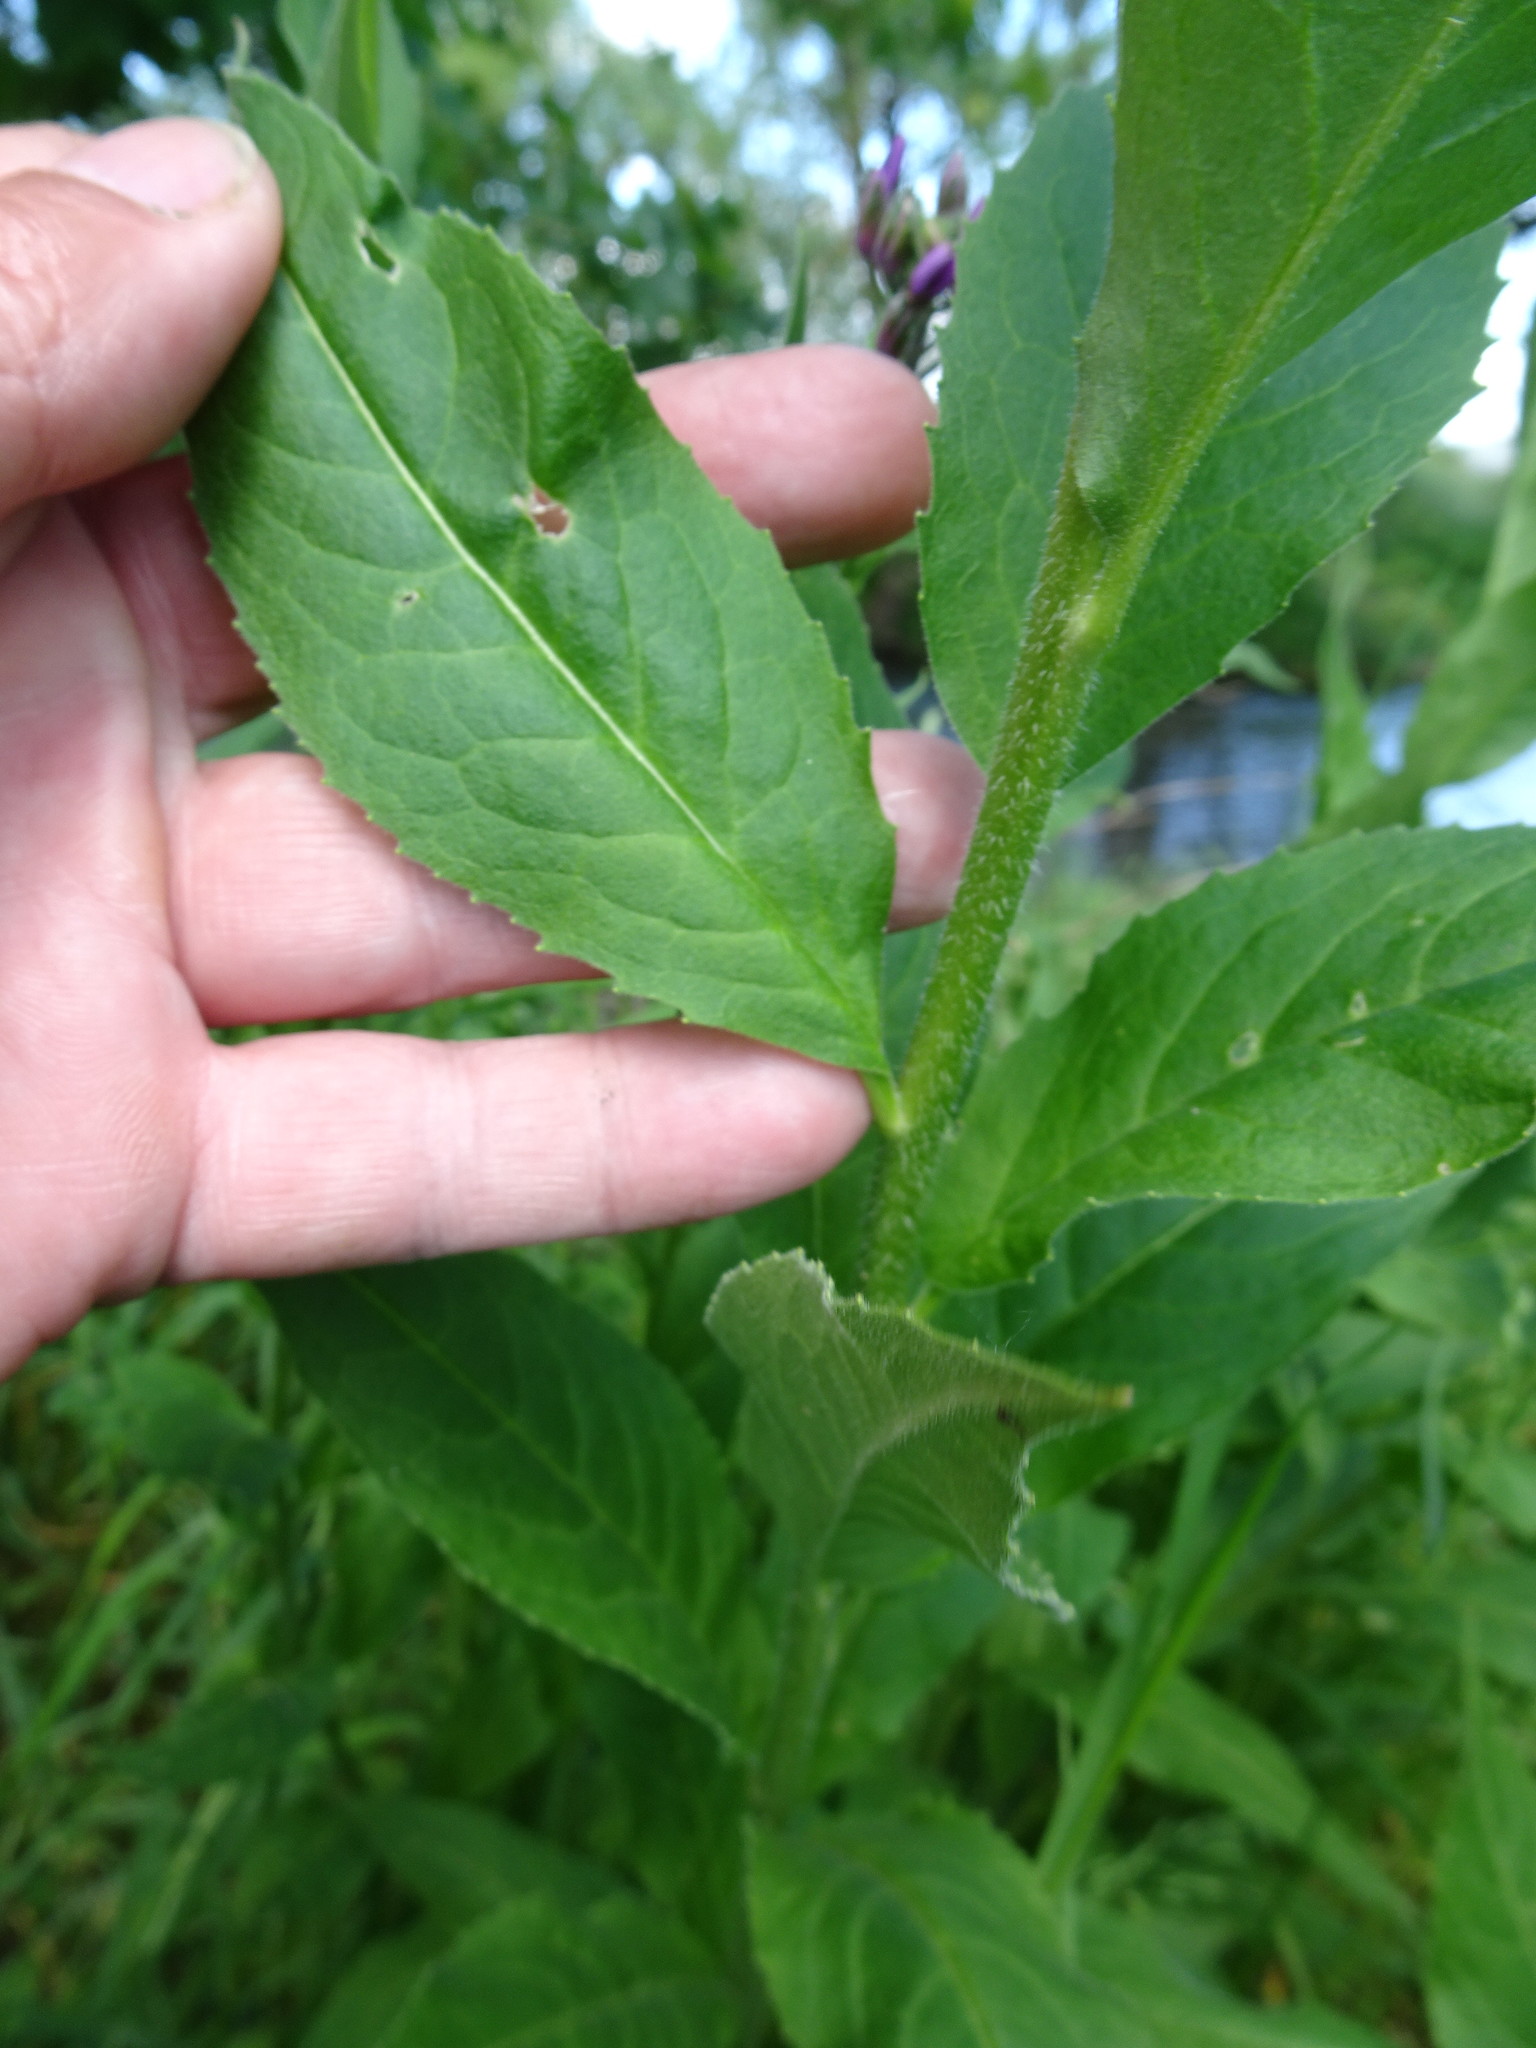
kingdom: Plantae
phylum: Tracheophyta
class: Magnoliopsida
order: Brassicales
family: Brassicaceae
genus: Hesperis
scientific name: Hesperis matronalis
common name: Dame's-violet
